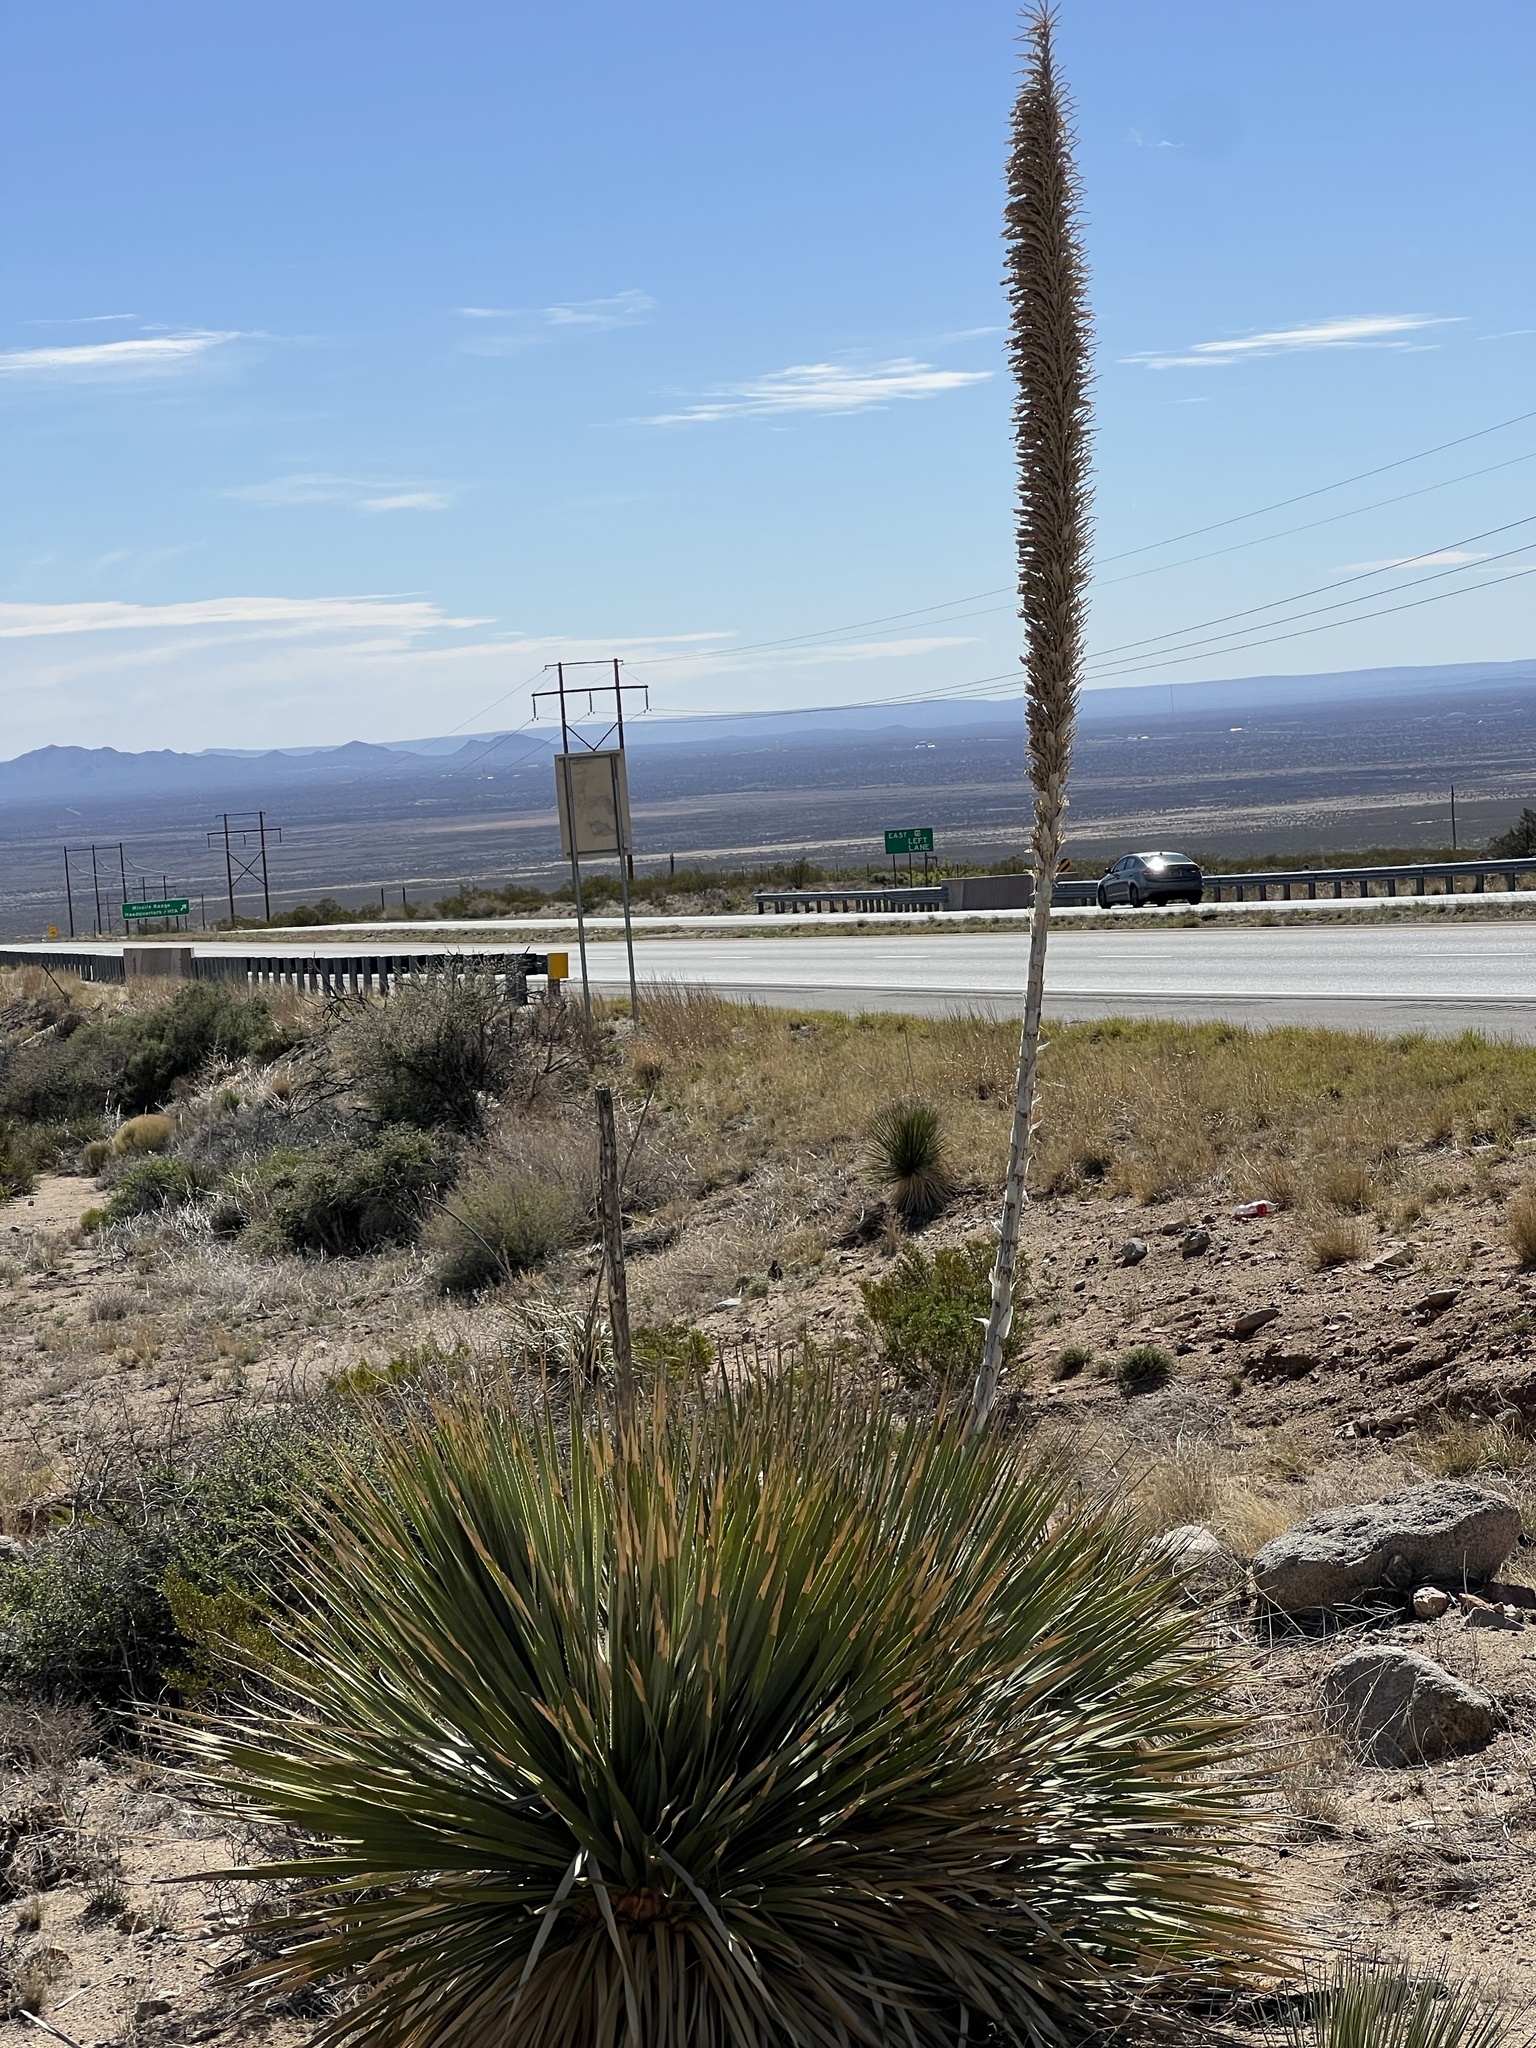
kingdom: Plantae
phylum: Tracheophyta
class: Liliopsida
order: Asparagales
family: Asparagaceae
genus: Dasylirion
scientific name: Dasylirion wheeleri
